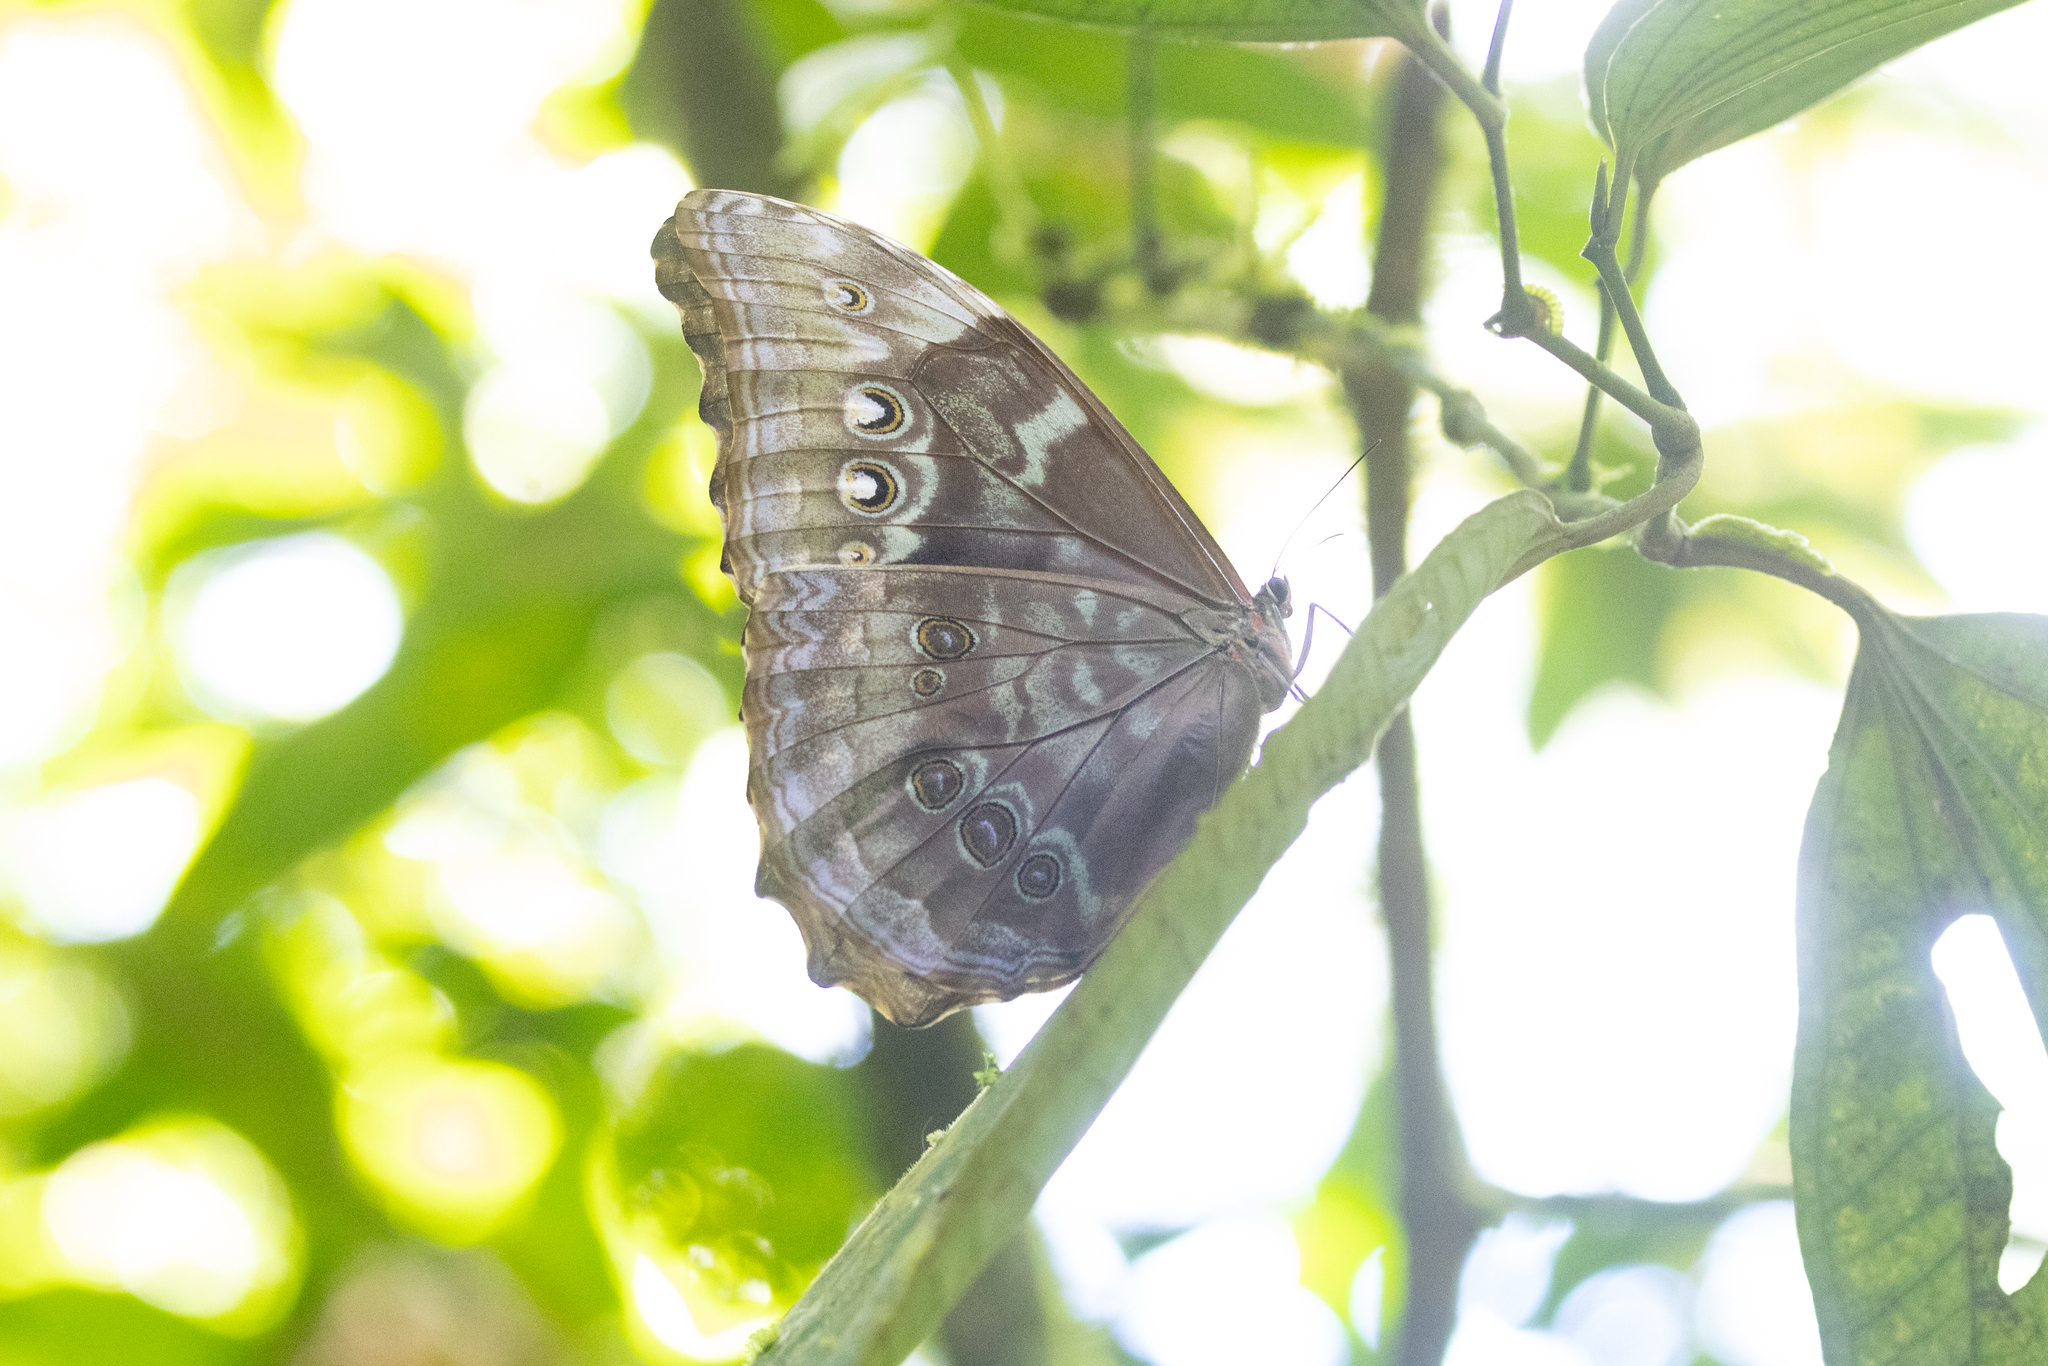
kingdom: Animalia
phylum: Arthropoda
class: Insecta
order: Lepidoptera
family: Nymphalidae
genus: Morpho
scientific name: Morpho amathonte
